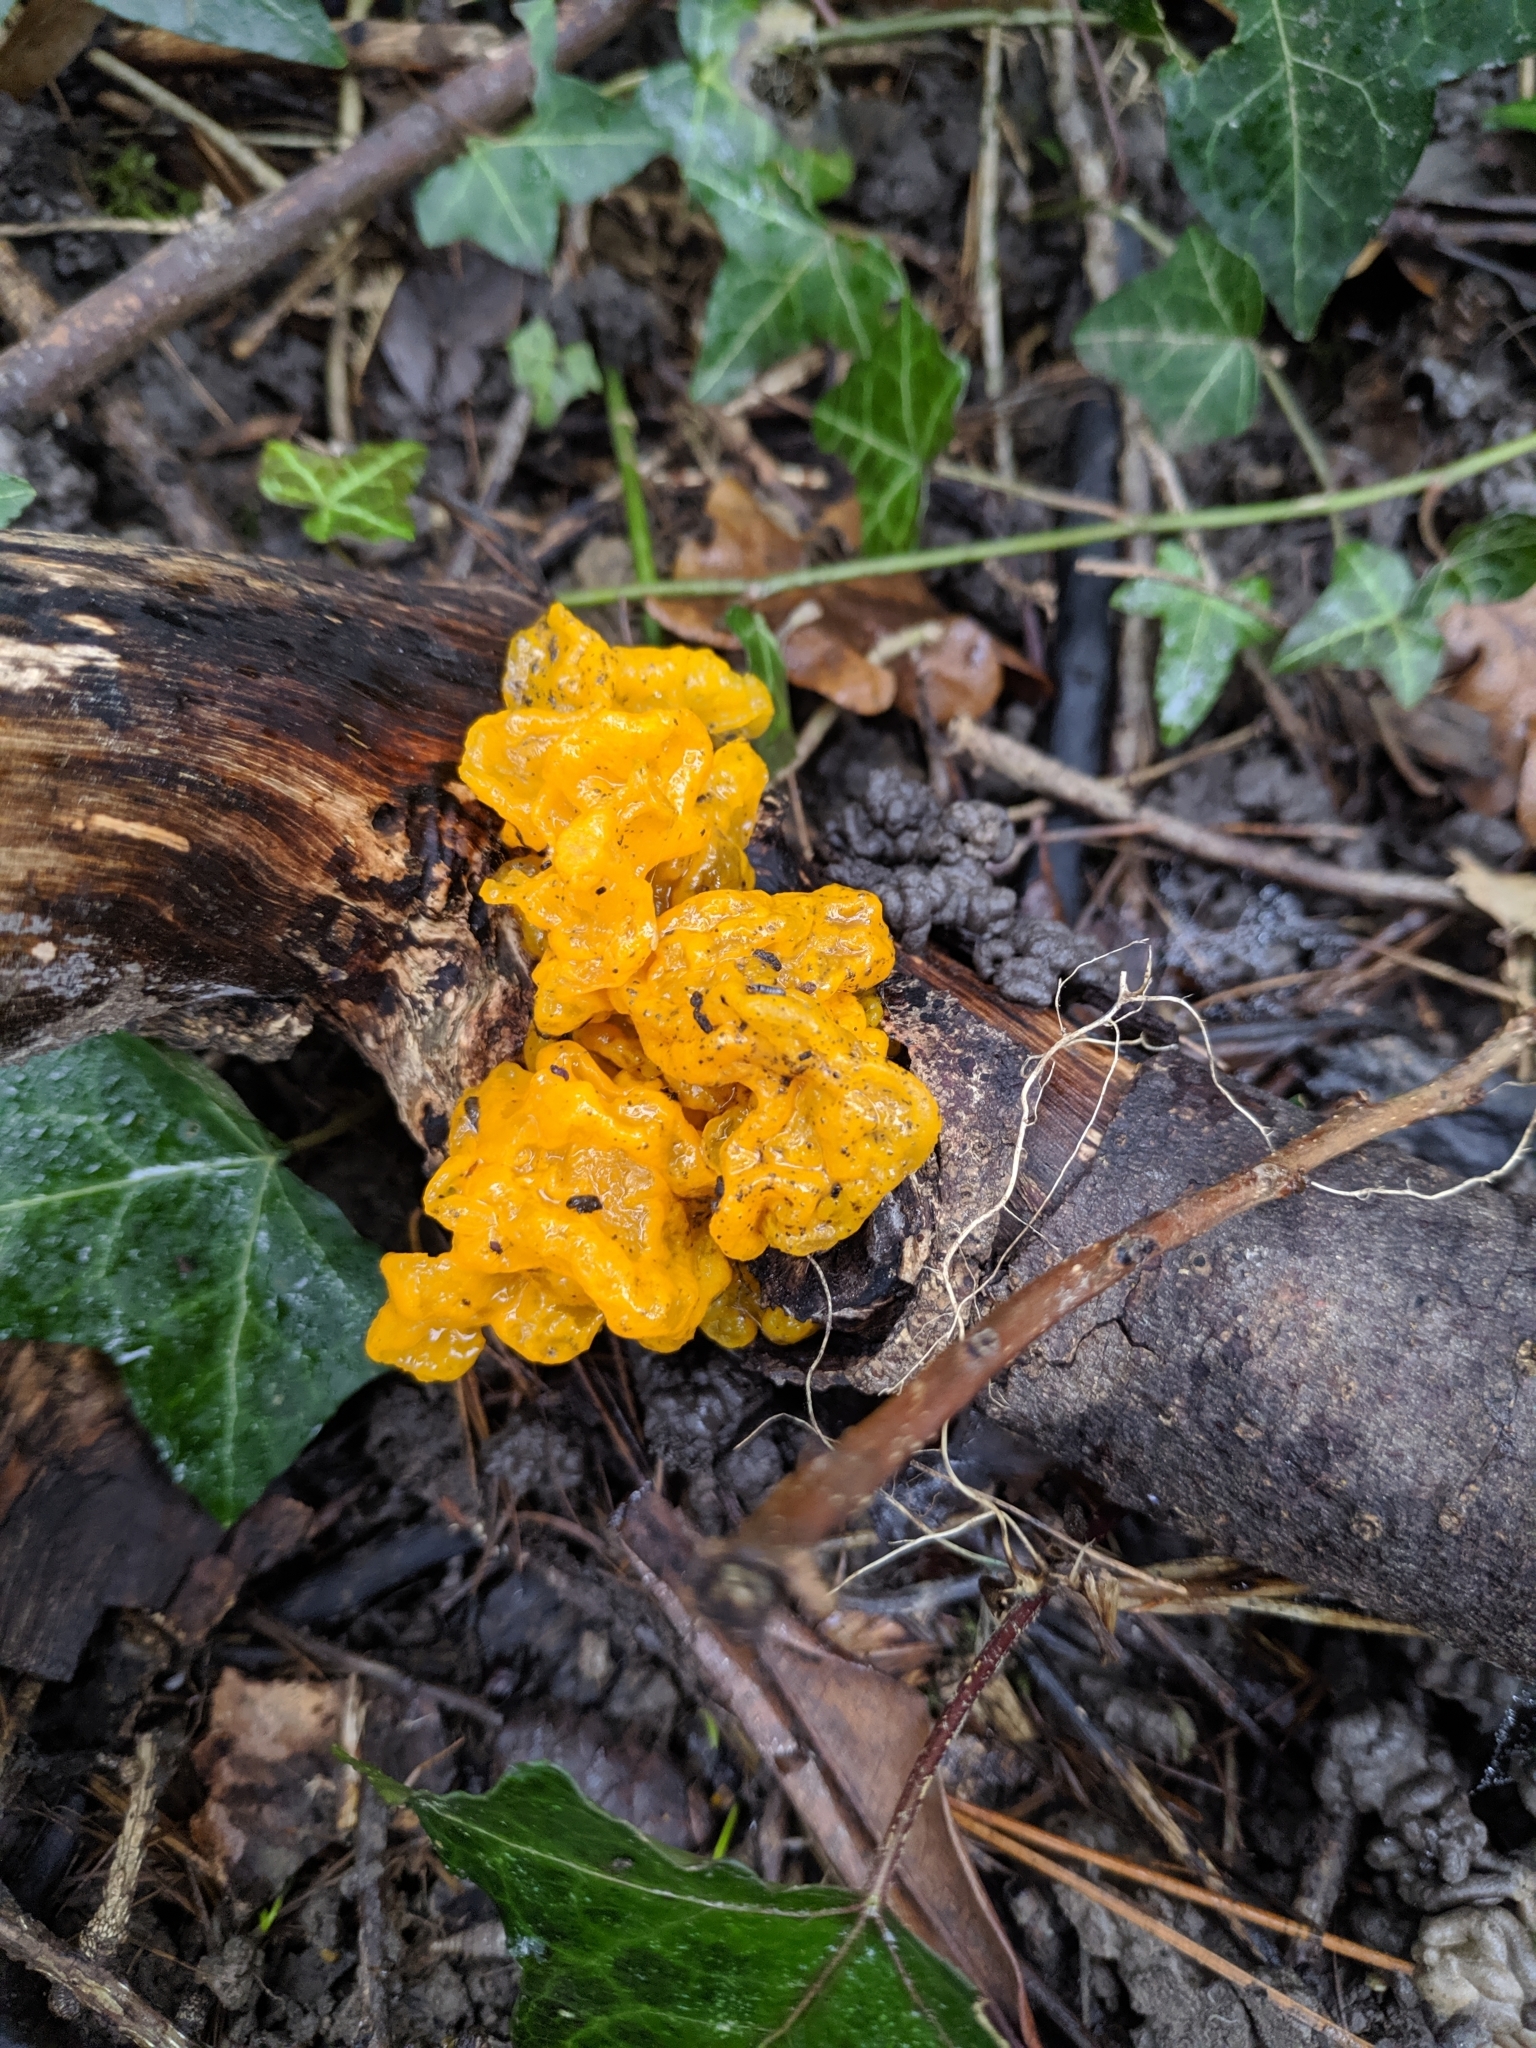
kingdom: Fungi
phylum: Basidiomycota
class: Tremellomycetes
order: Tremellales
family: Tremellaceae
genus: Tremella
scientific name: Tremella mesenterica
